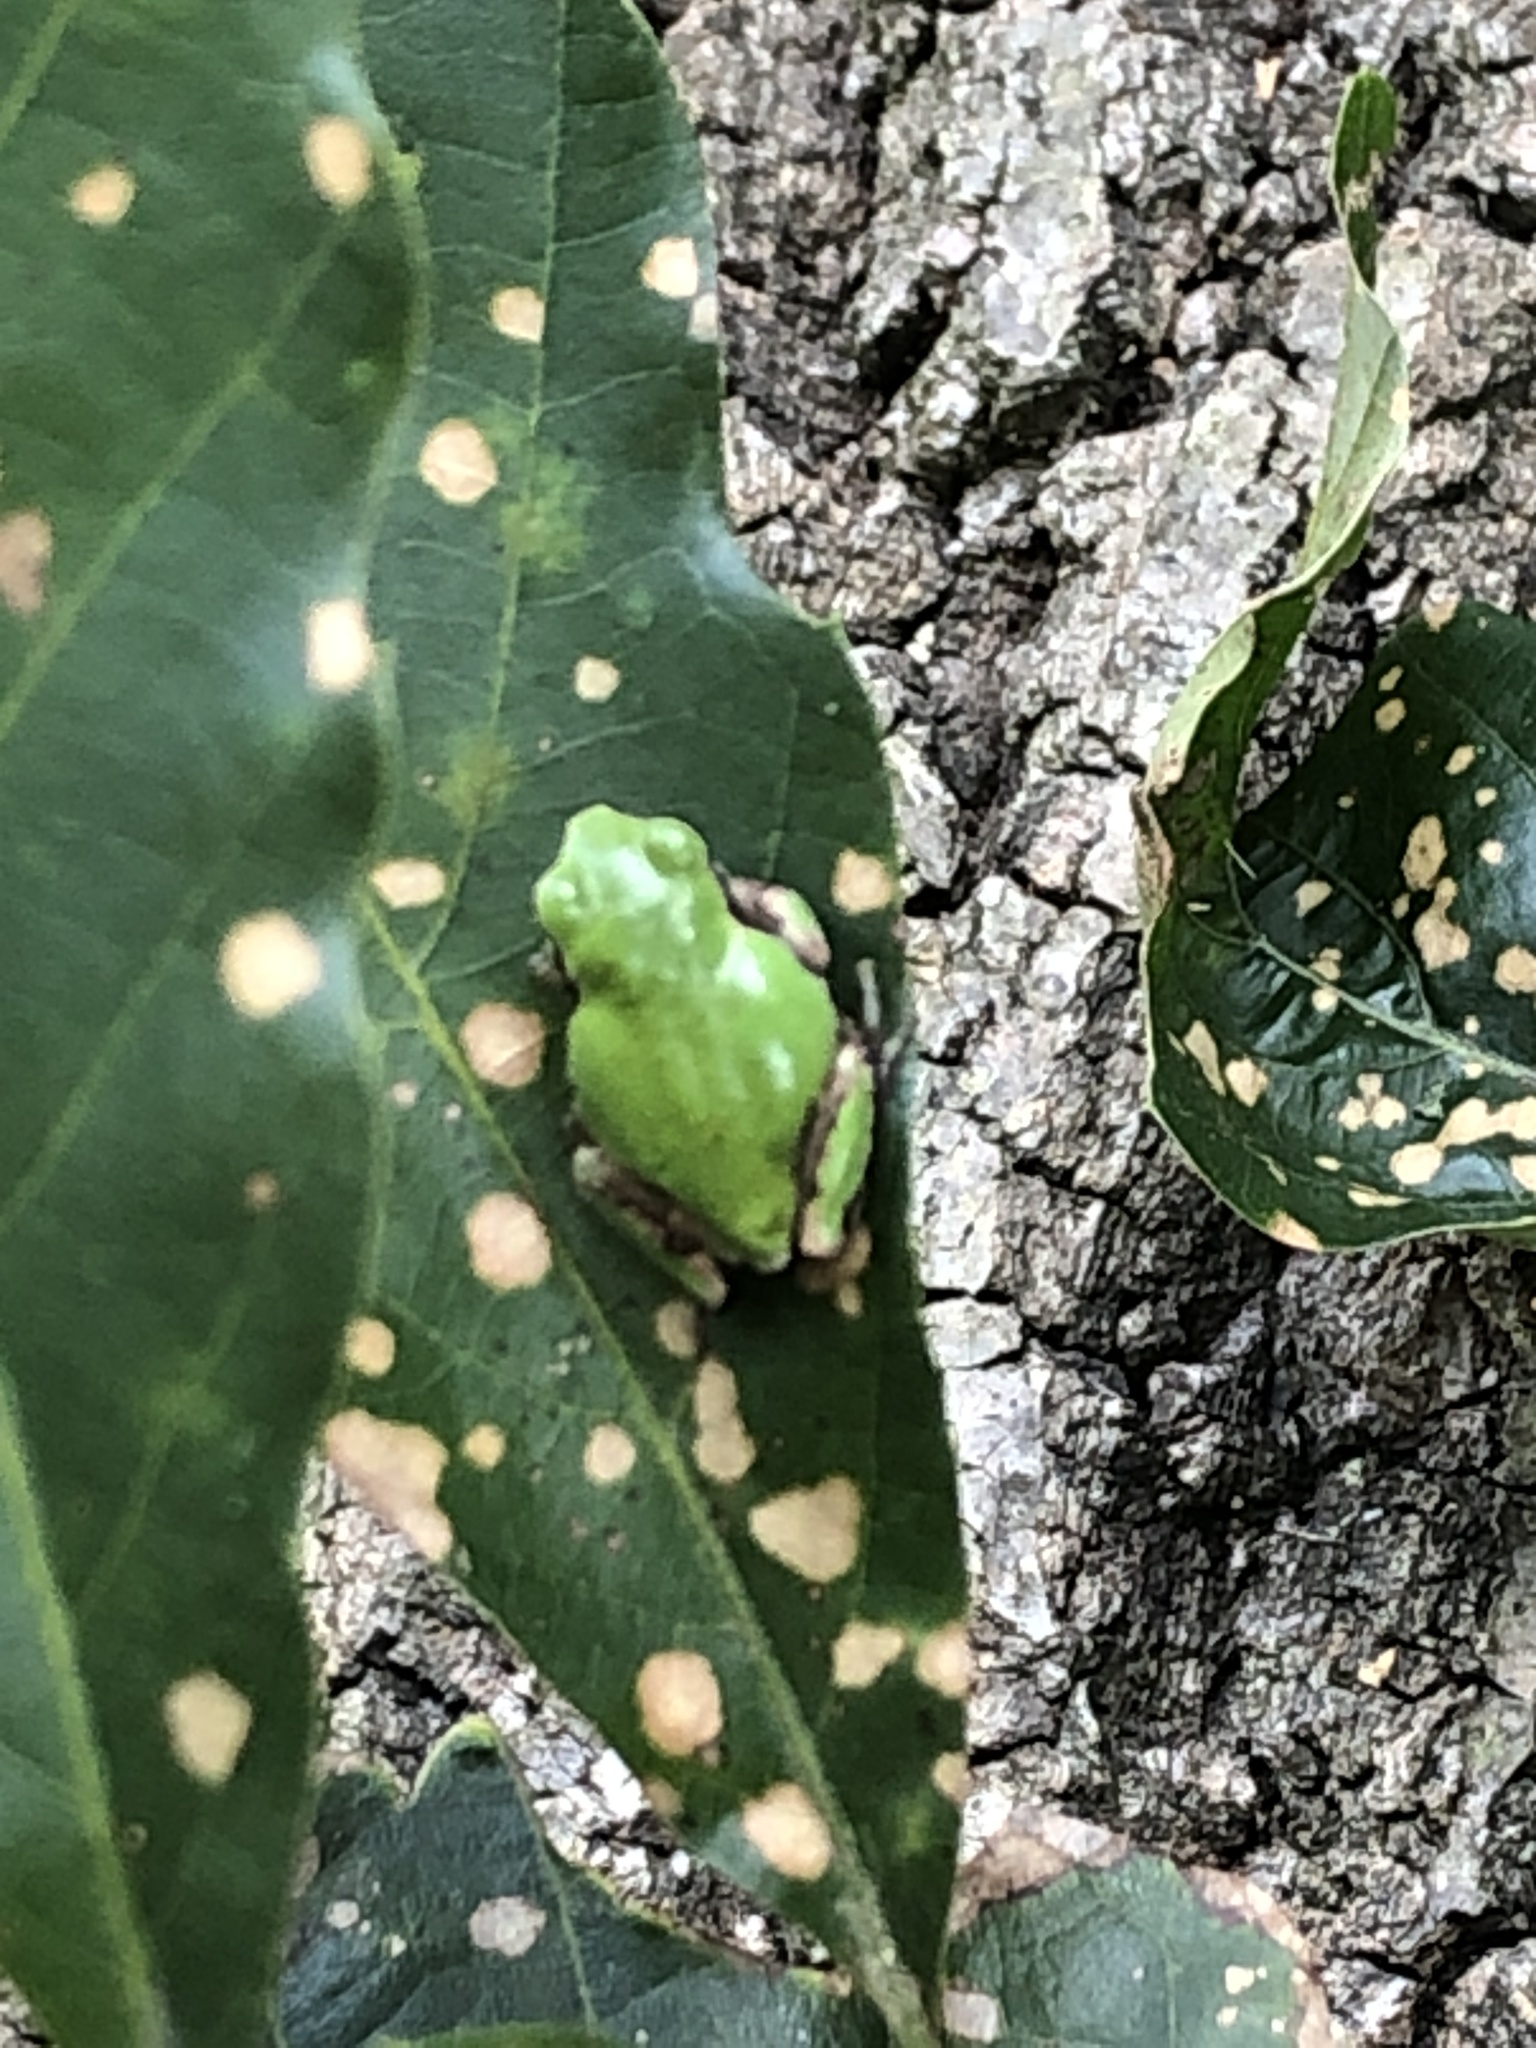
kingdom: Animalia
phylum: Chordata
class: Amphibia
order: Anura
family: Hylidae
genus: Dryophytes
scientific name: Dryophytes japonicus
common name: Japanese treefrog
